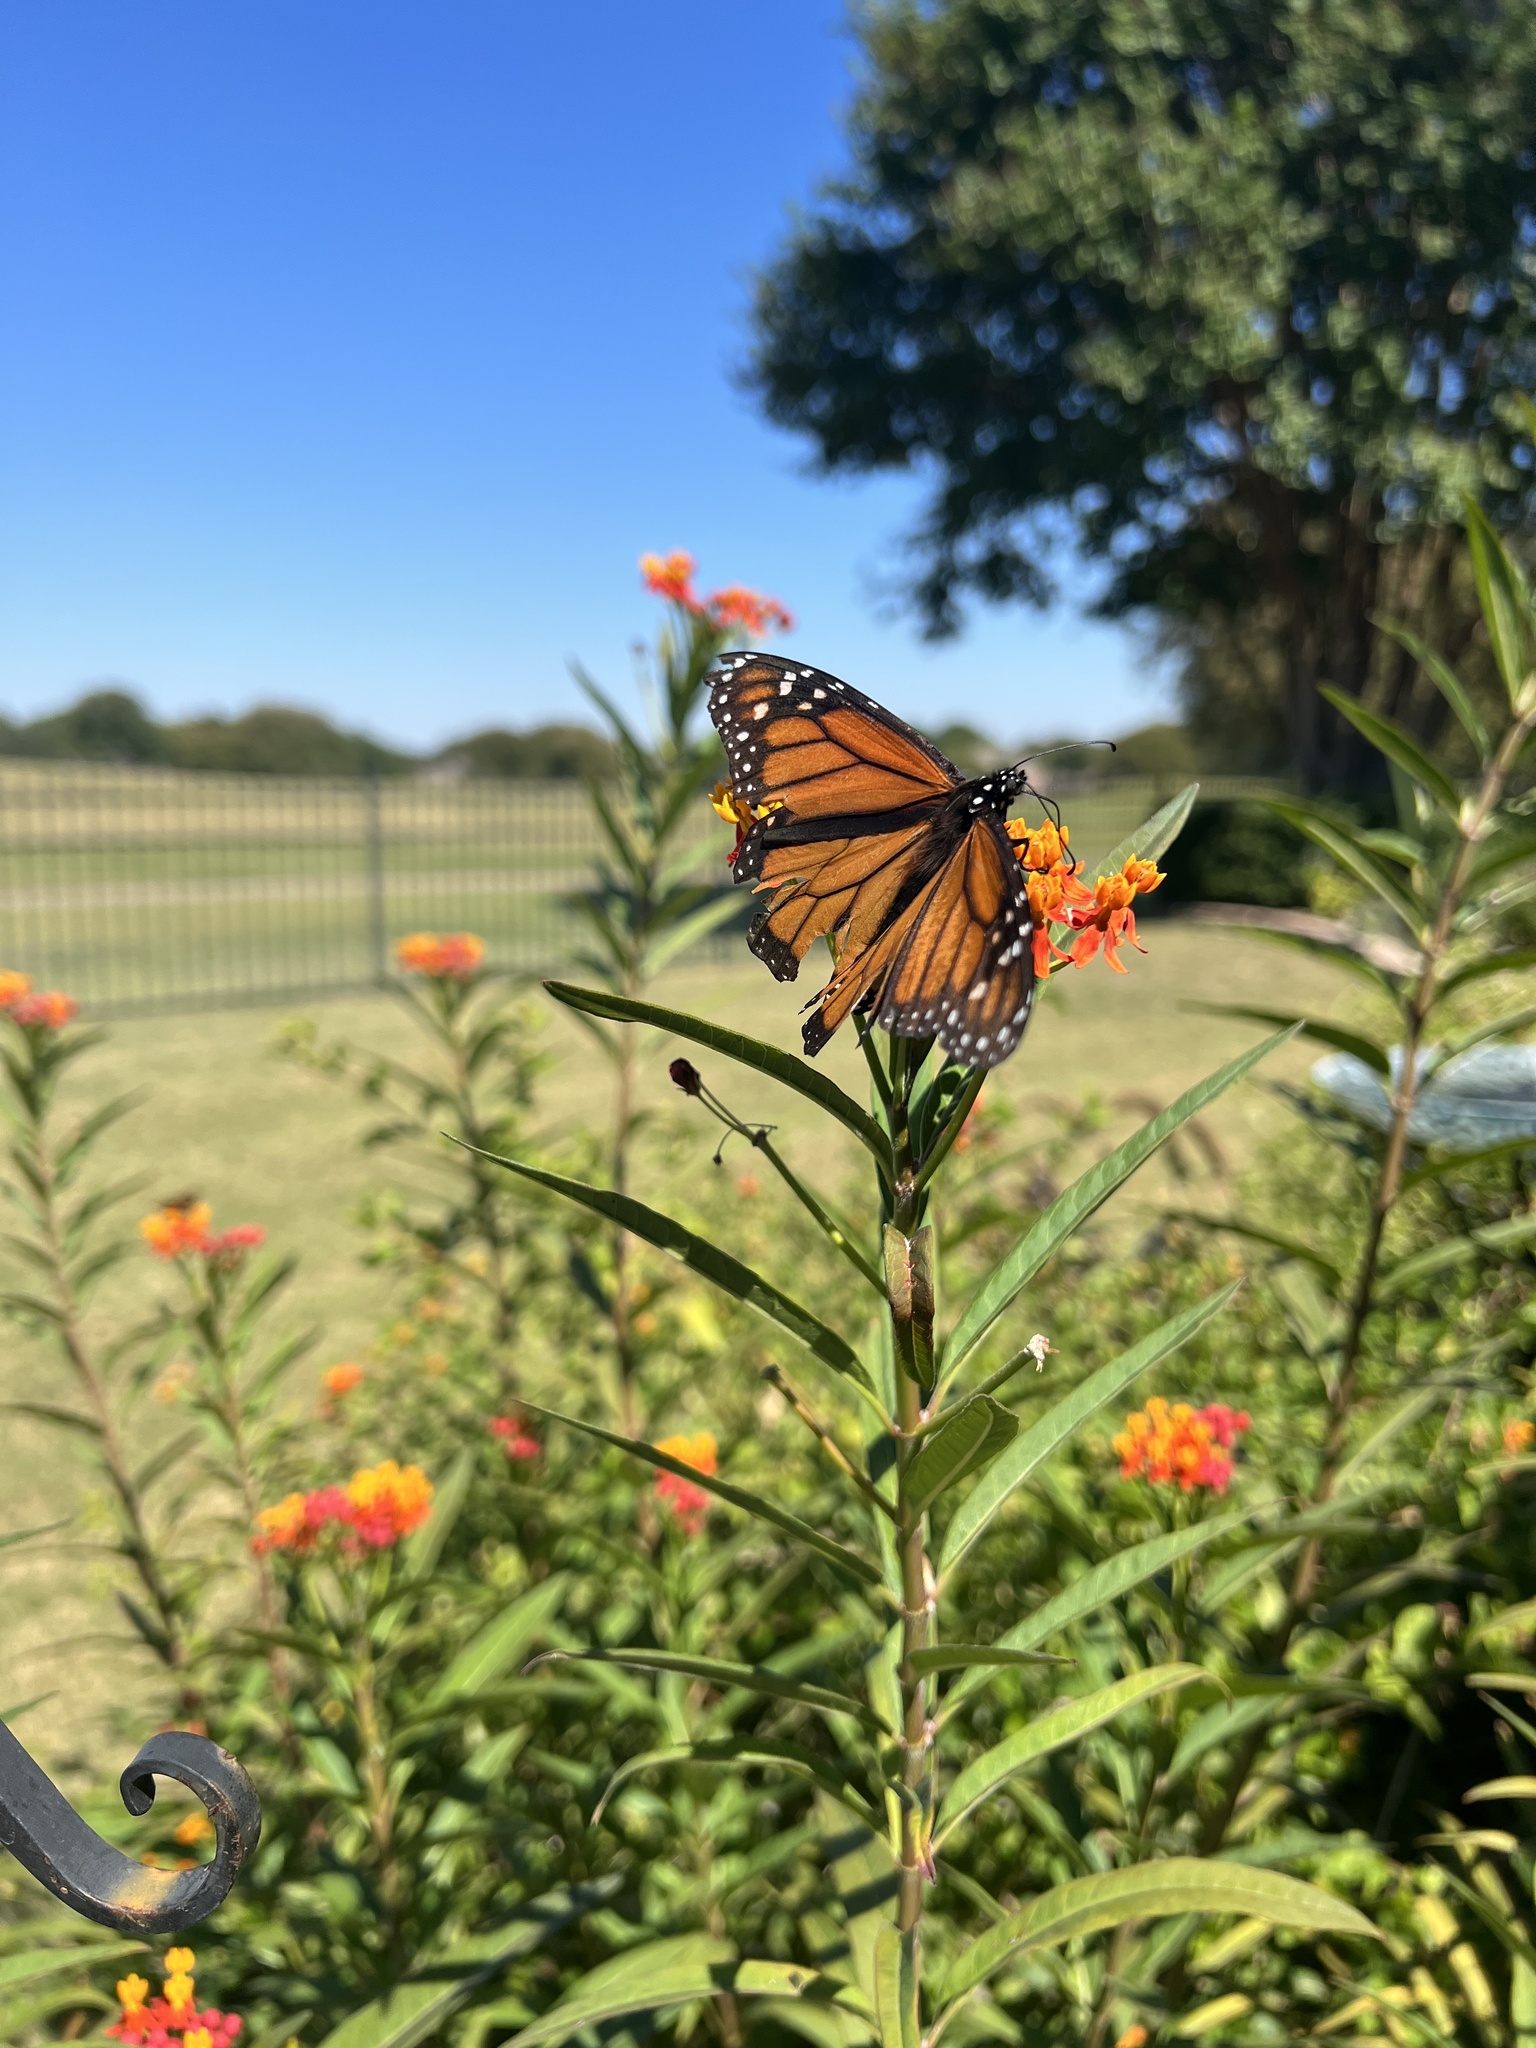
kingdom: Animalia
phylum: Arthropoda
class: Insecta
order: Lepidoptera
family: Nymphalidae
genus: Danaus
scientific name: Danaus plexippus
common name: Monarch
